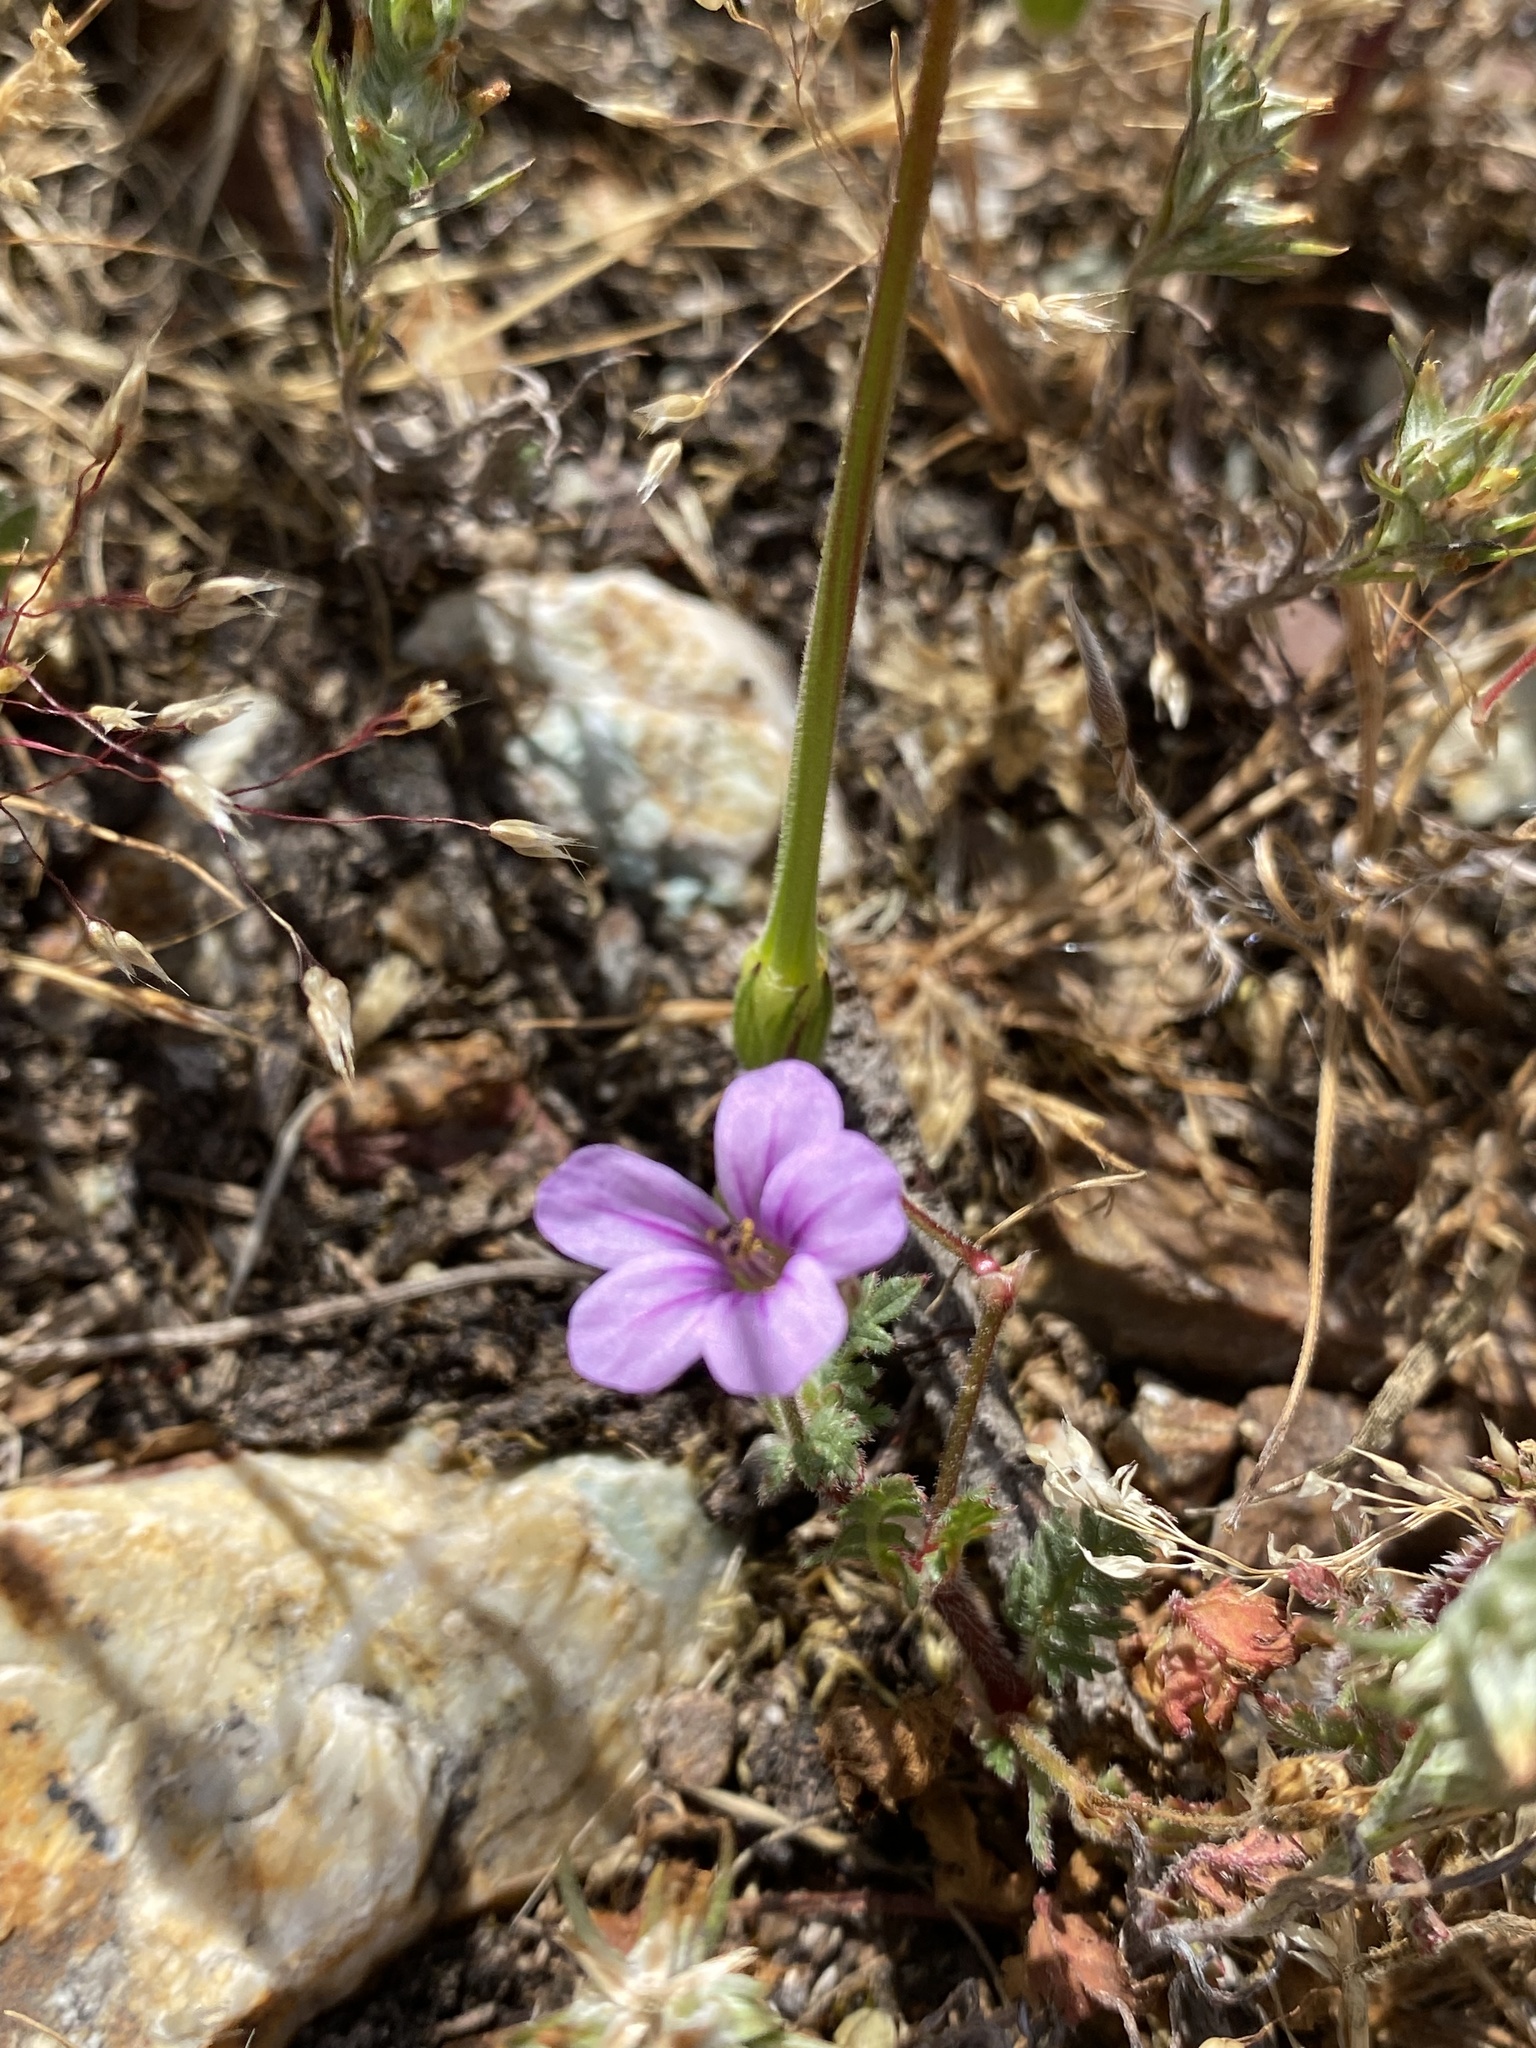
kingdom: Plantae
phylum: Tracheophyta
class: Magnoliopsida
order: Geraniales
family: Geraniaceae
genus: Erodium
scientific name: Erodium botrys
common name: Mediterranean stork's-bill
